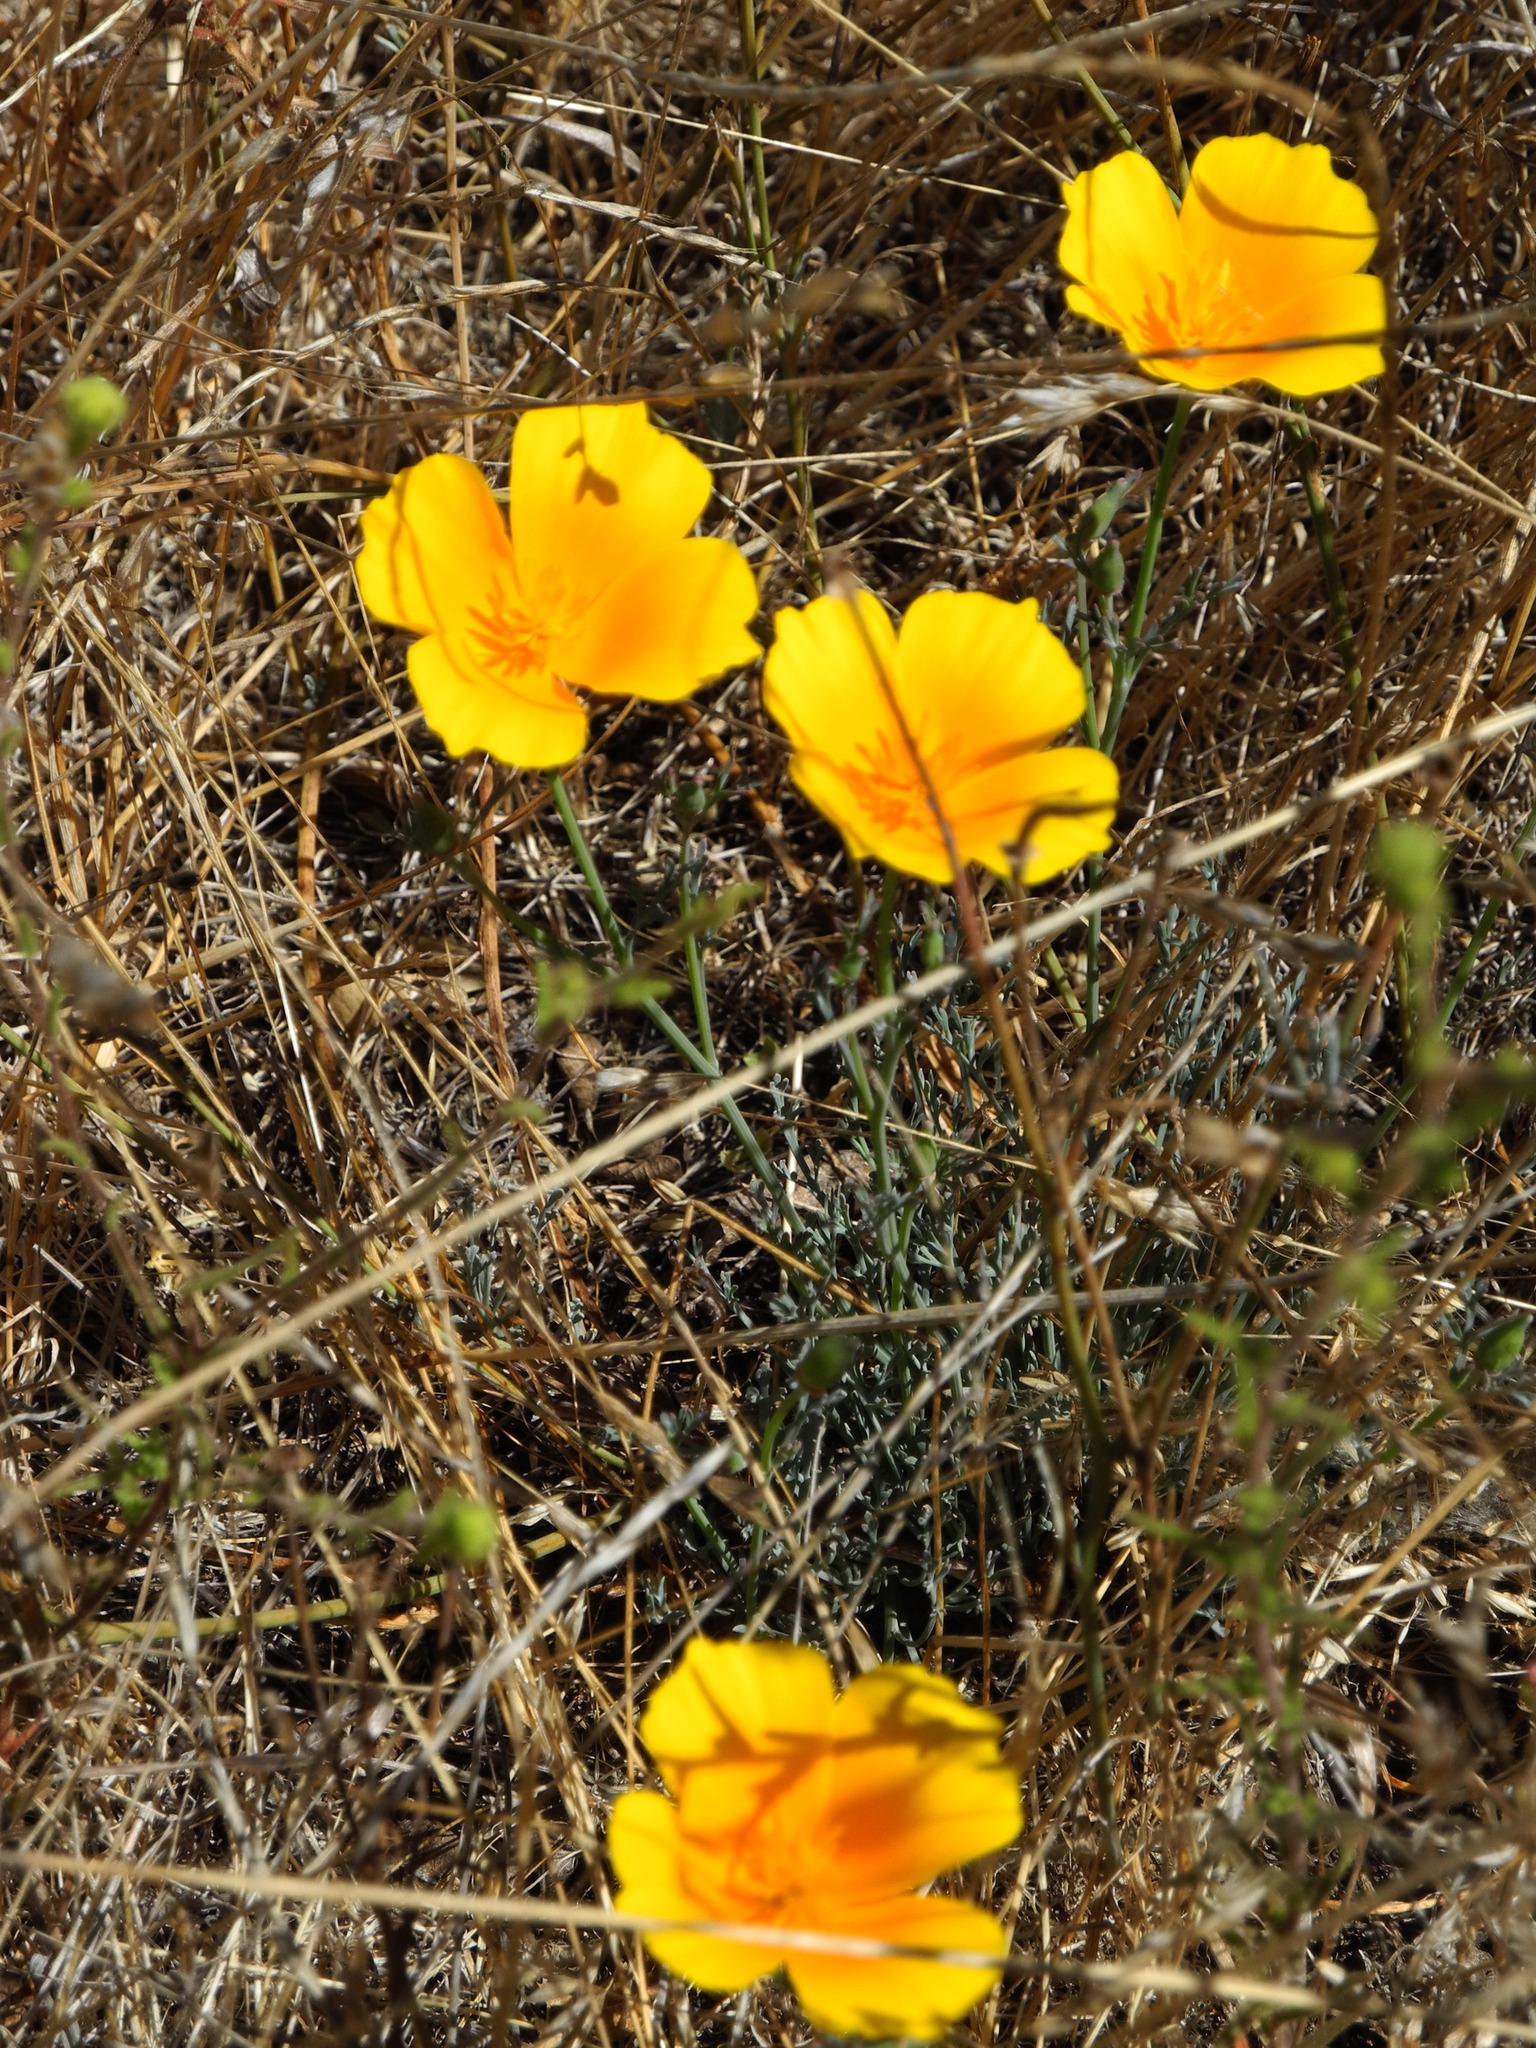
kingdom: Plantae
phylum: Tracheophyta
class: Magnoliopsida
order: Ranunculales
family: Papaveraceae
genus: Eschscholzia
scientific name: Eschscholzia californica
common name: California poppy
